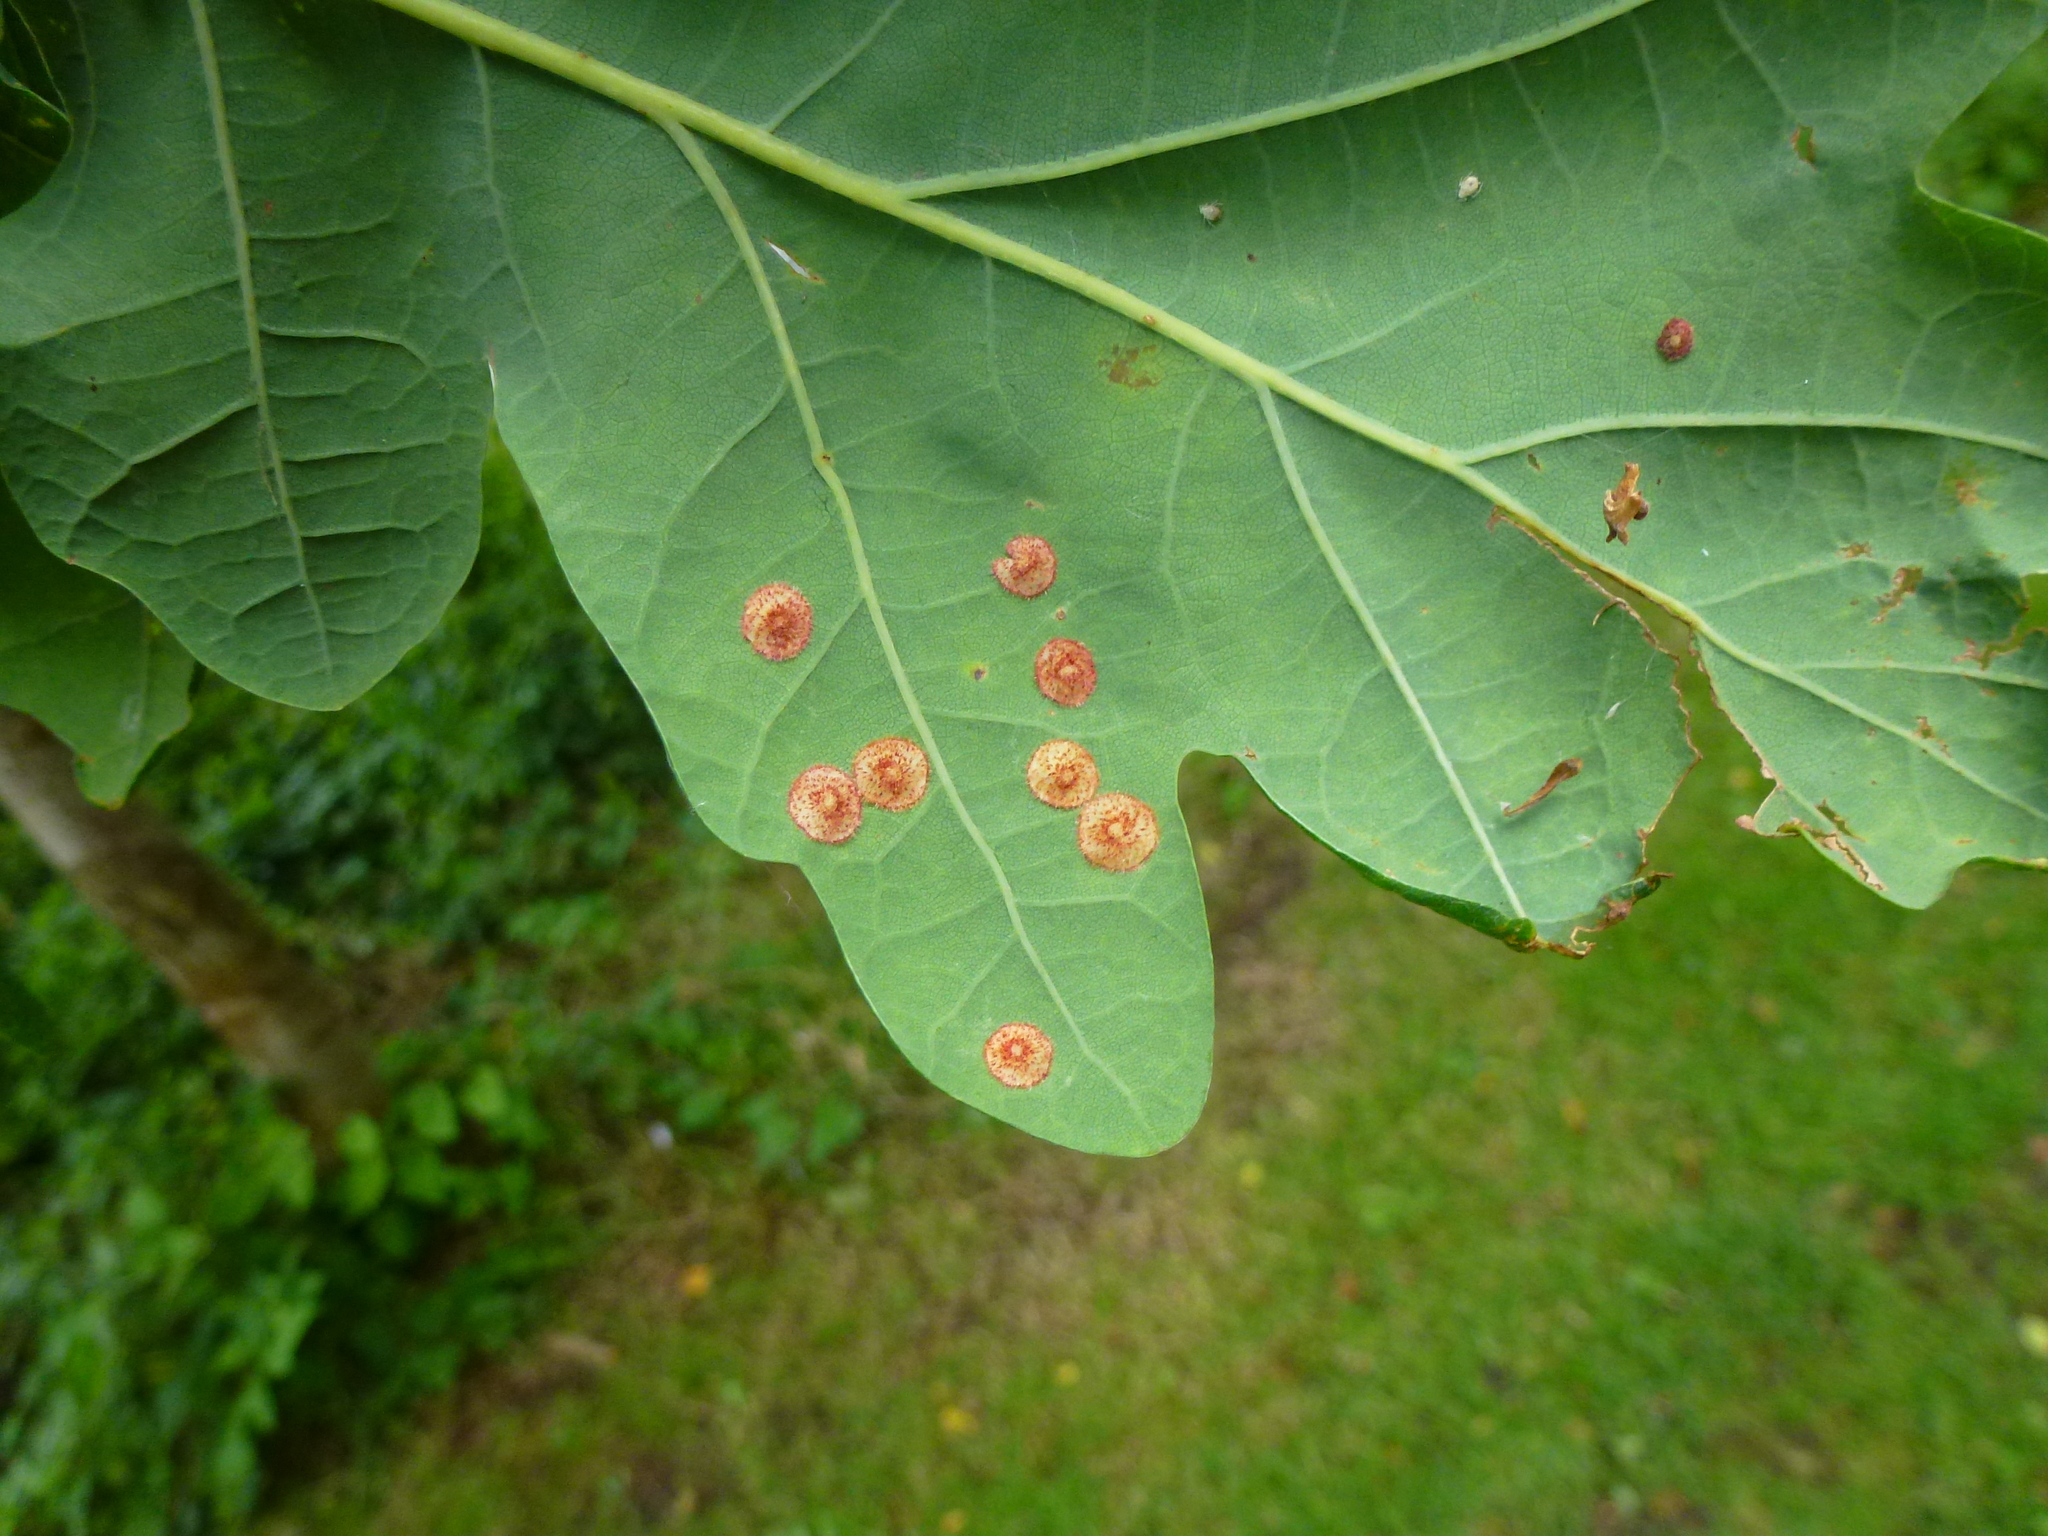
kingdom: Animalia
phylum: Arthropoda
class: Insecta
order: Hymenoptera
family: Cynipidae
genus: Neuroterus
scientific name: Neuroterus quercusbaccarum
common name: Common spangle gall
